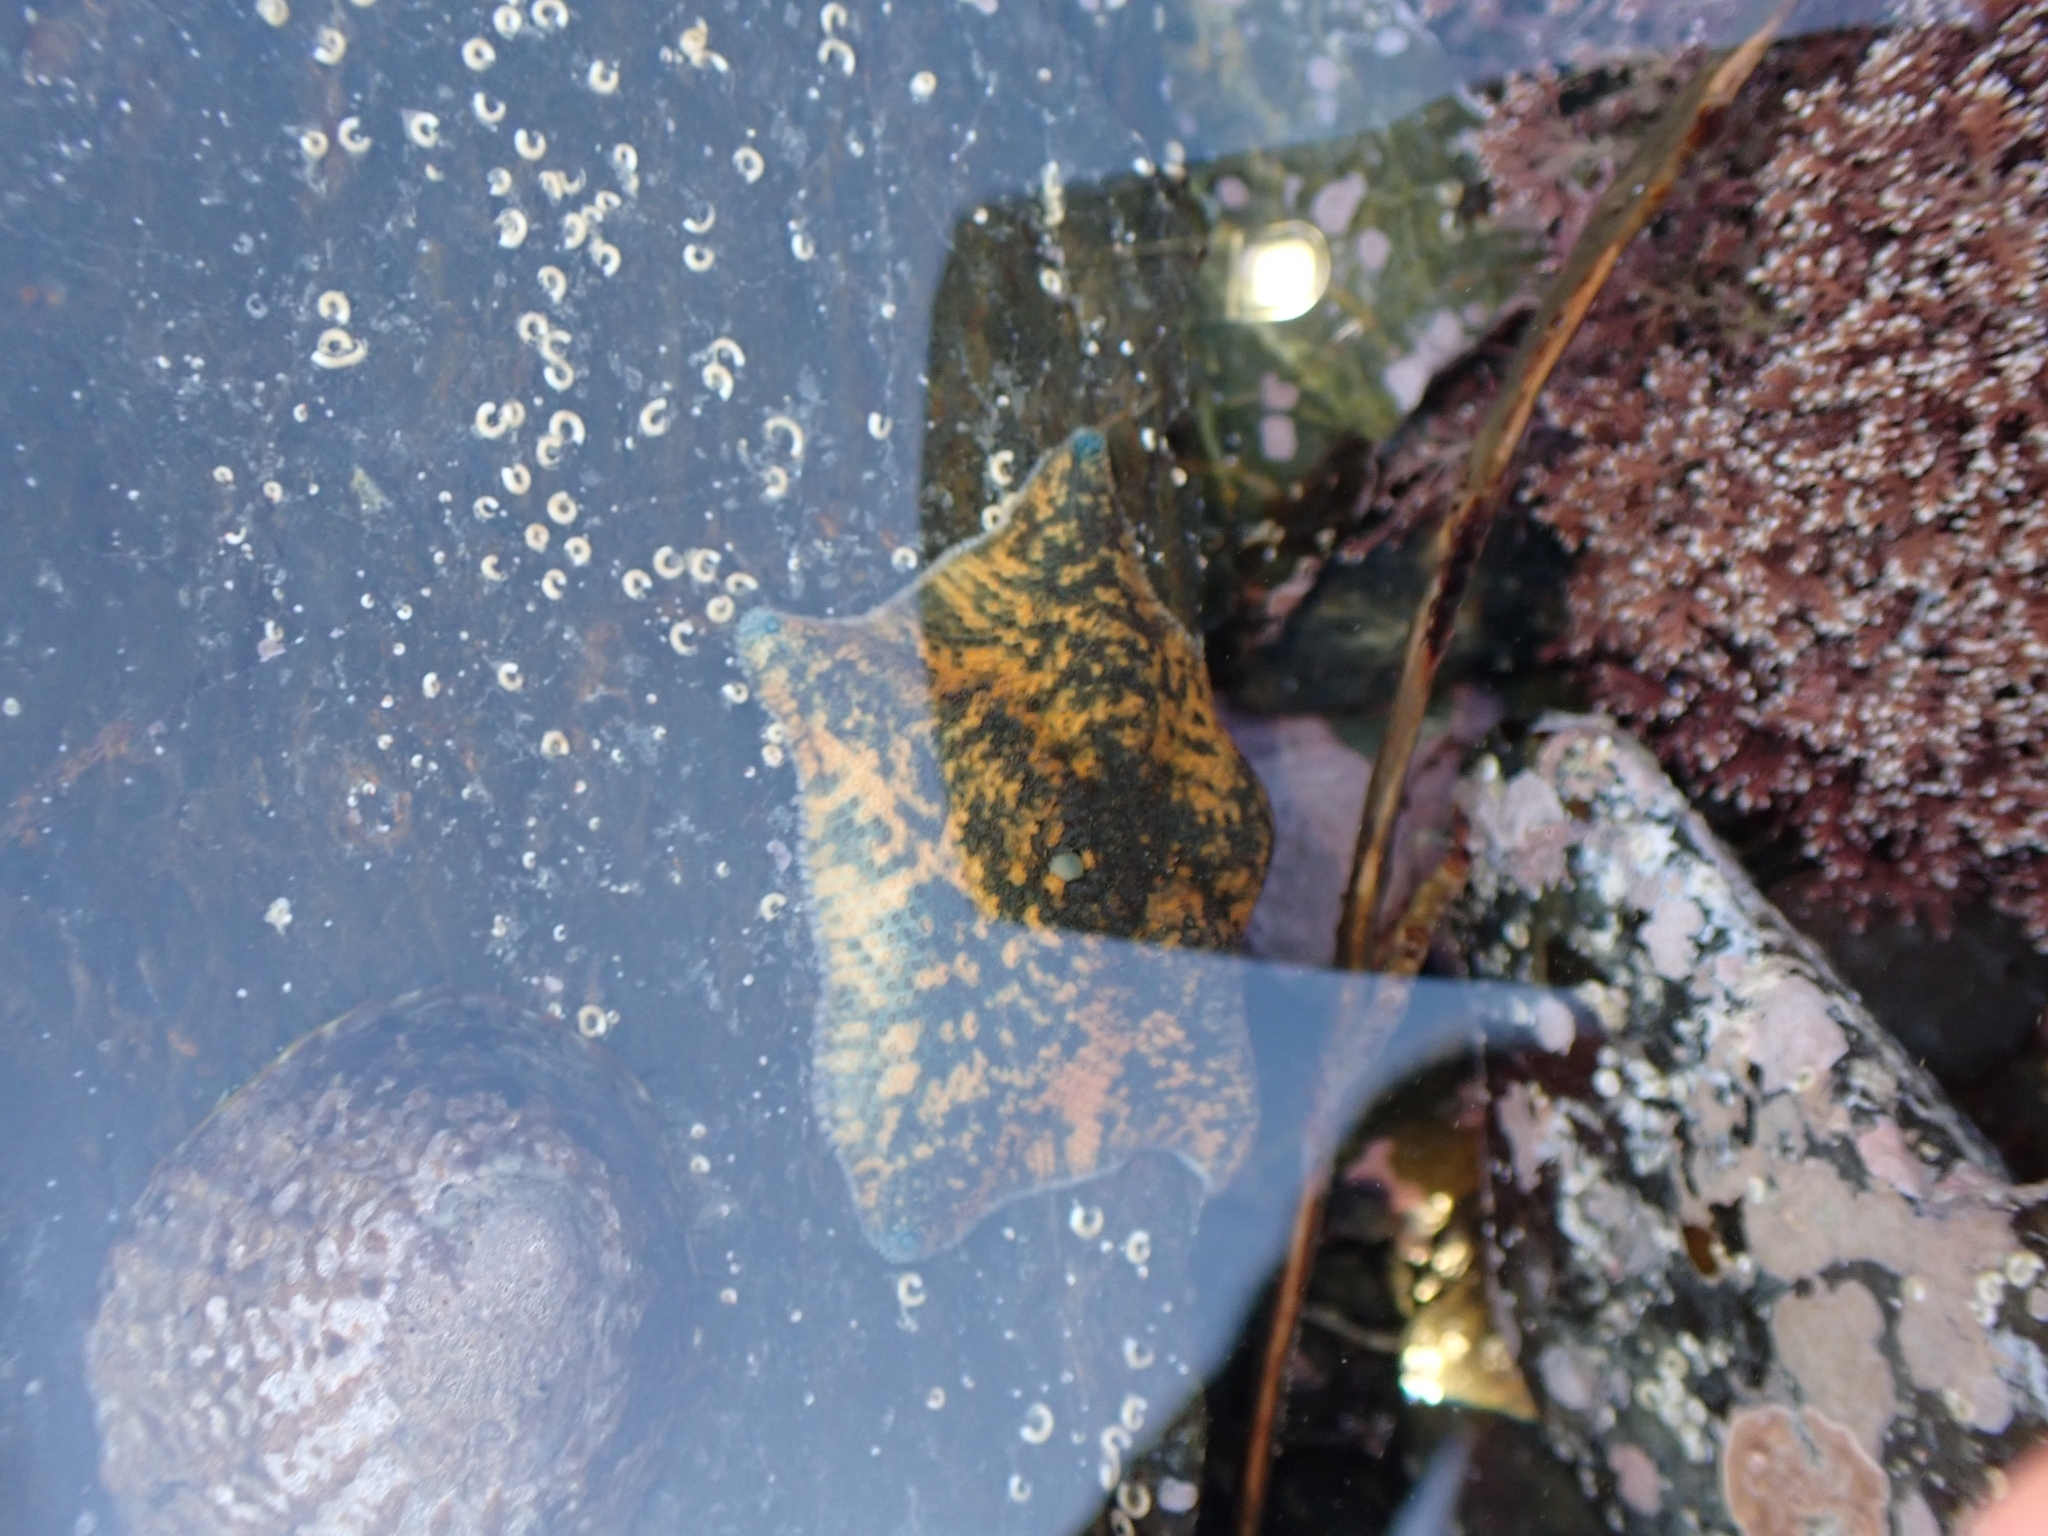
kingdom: Animalia
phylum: Echinodermata
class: Asteroidea
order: Valvatida
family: Asterinidae
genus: Patiriella
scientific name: Patiriella regularis
